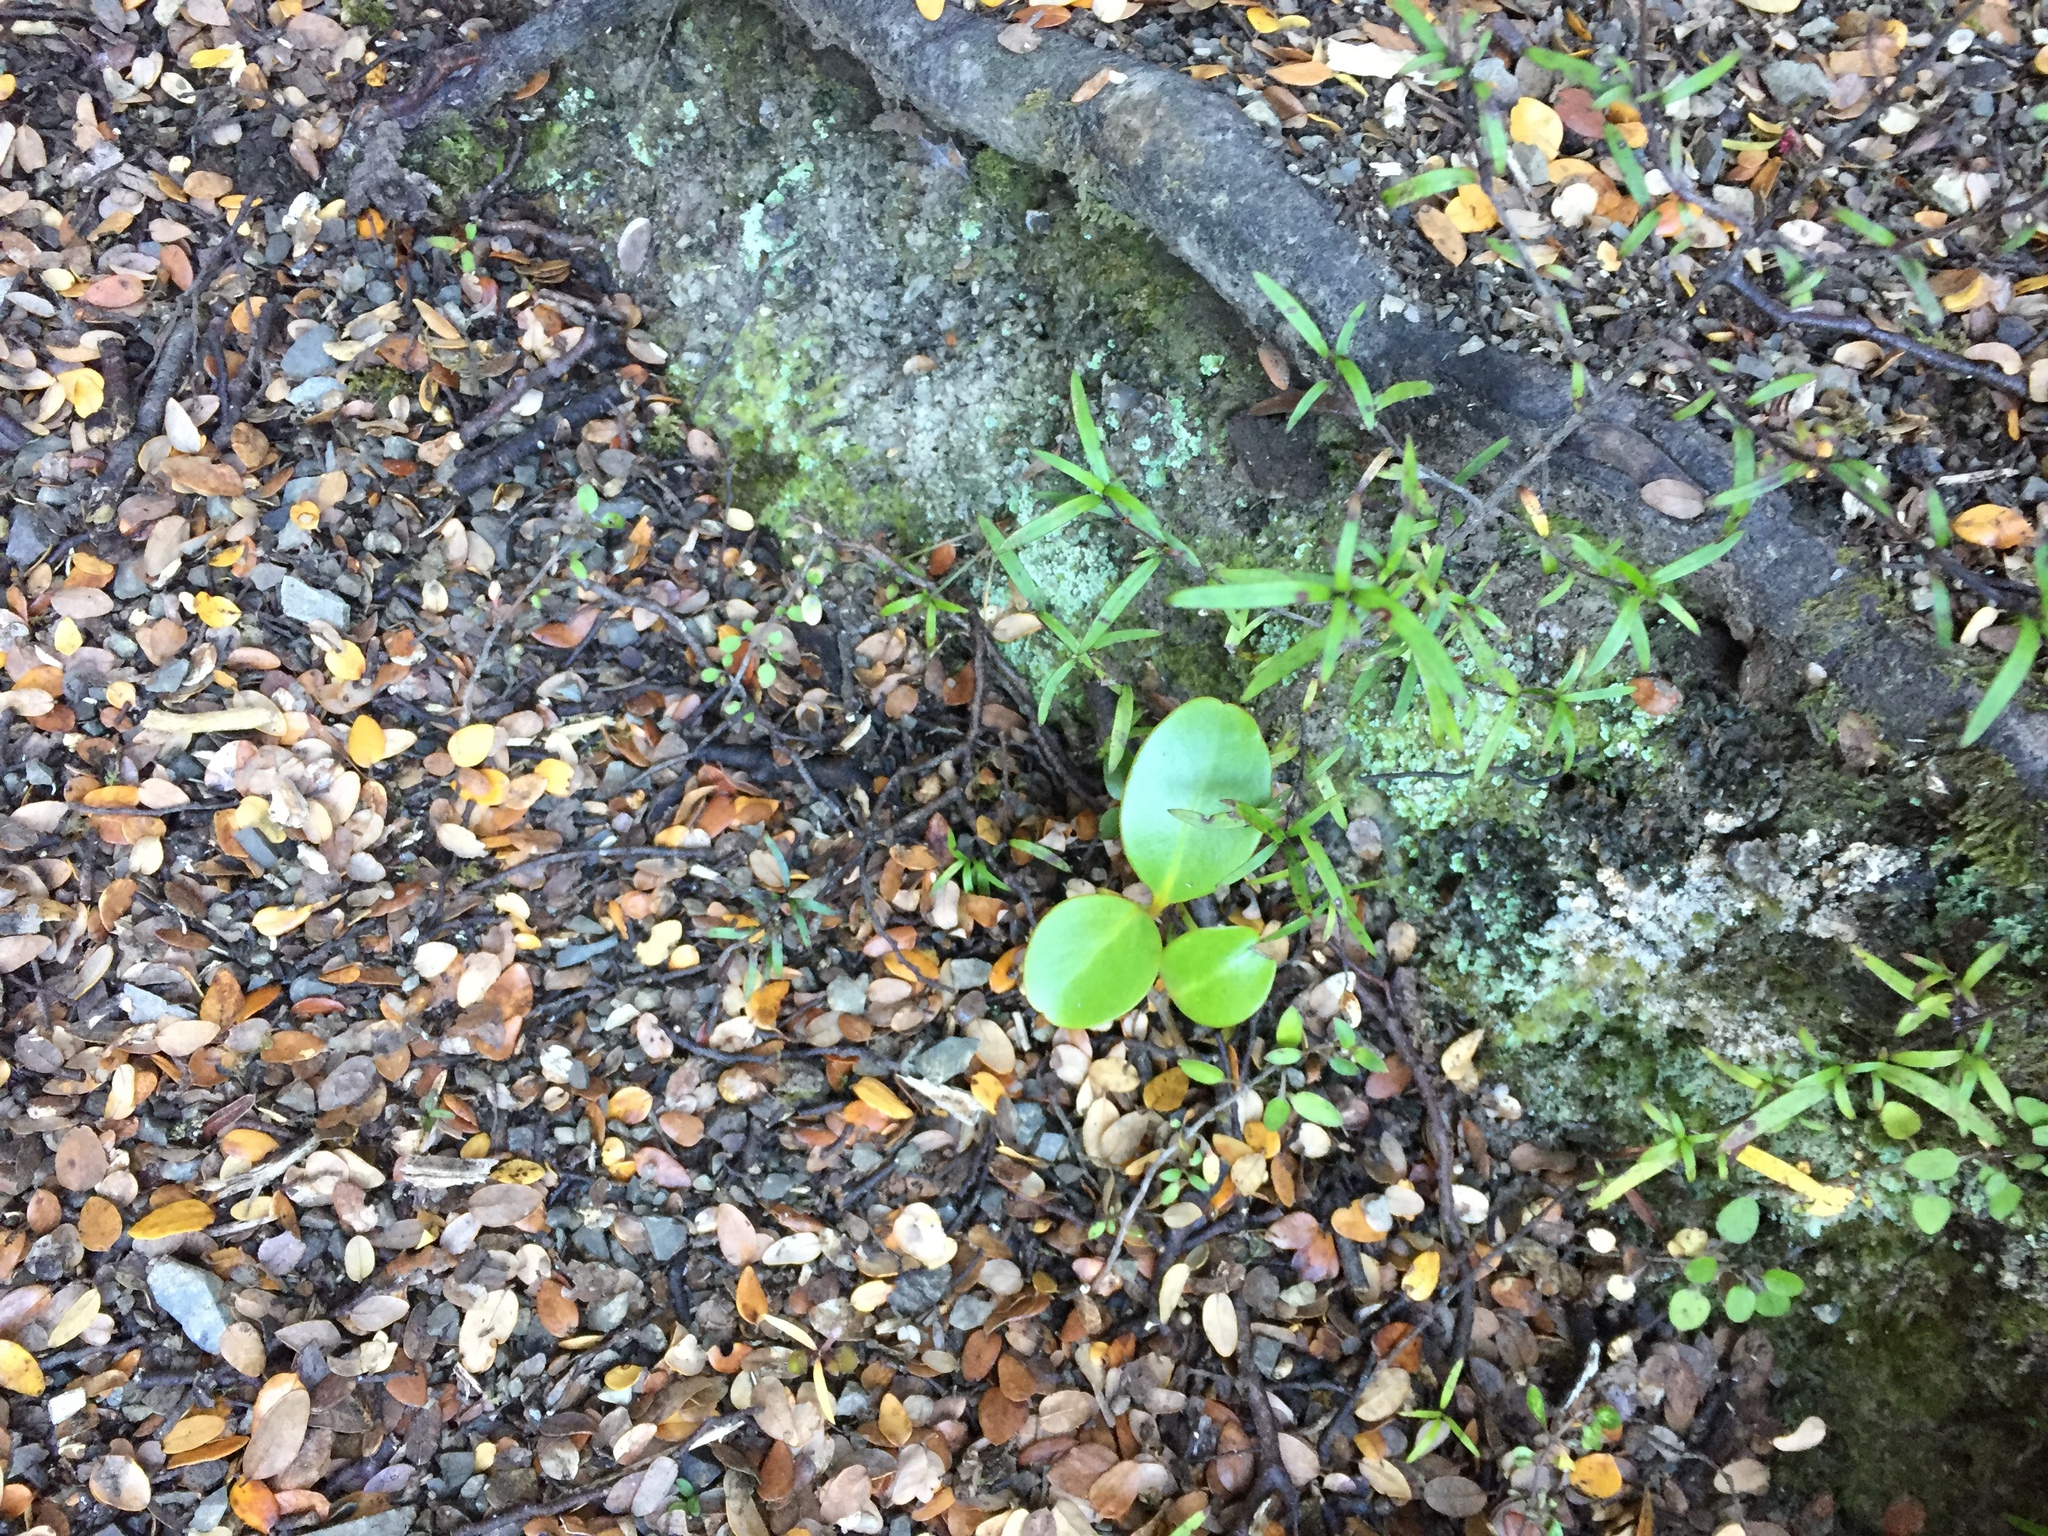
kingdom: Plantae
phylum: Tracheophyta
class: Magnoliopsida
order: Apiales
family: Griseliniaceae
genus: Griselinia
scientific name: Griselinia littoralis
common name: New zealand broadleaf
